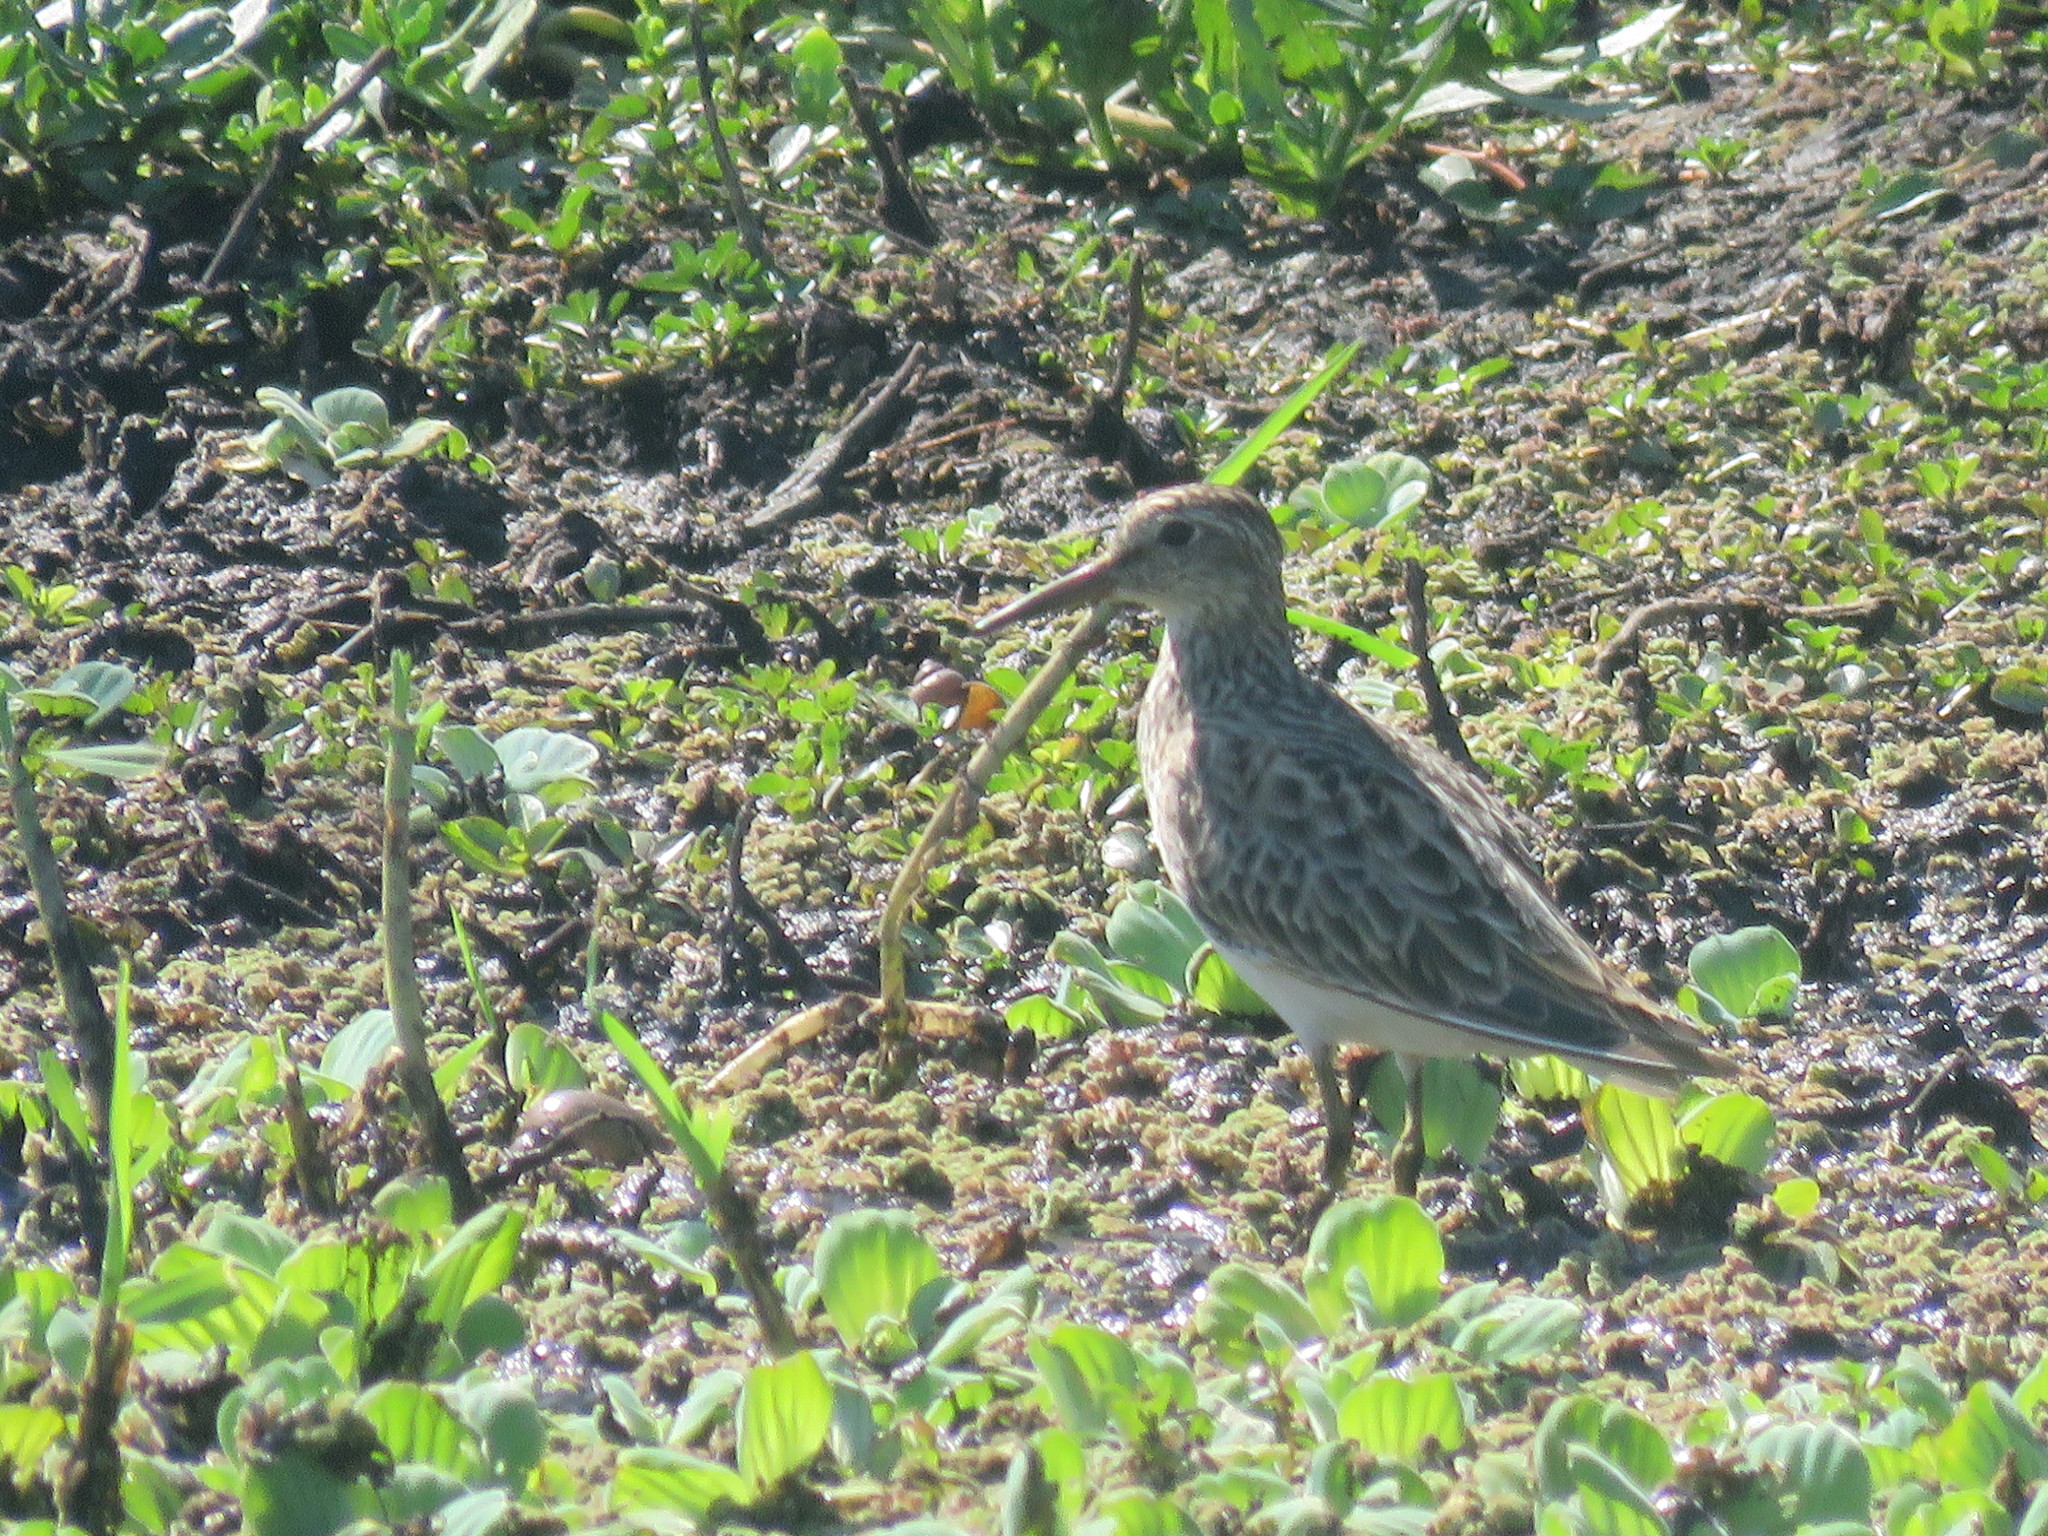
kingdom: Animalia
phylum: Chordata
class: Aves
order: Charadriiformes
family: Scolopacidae
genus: Calidris
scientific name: Calidris melanotos
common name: Pectoral sandpiper
